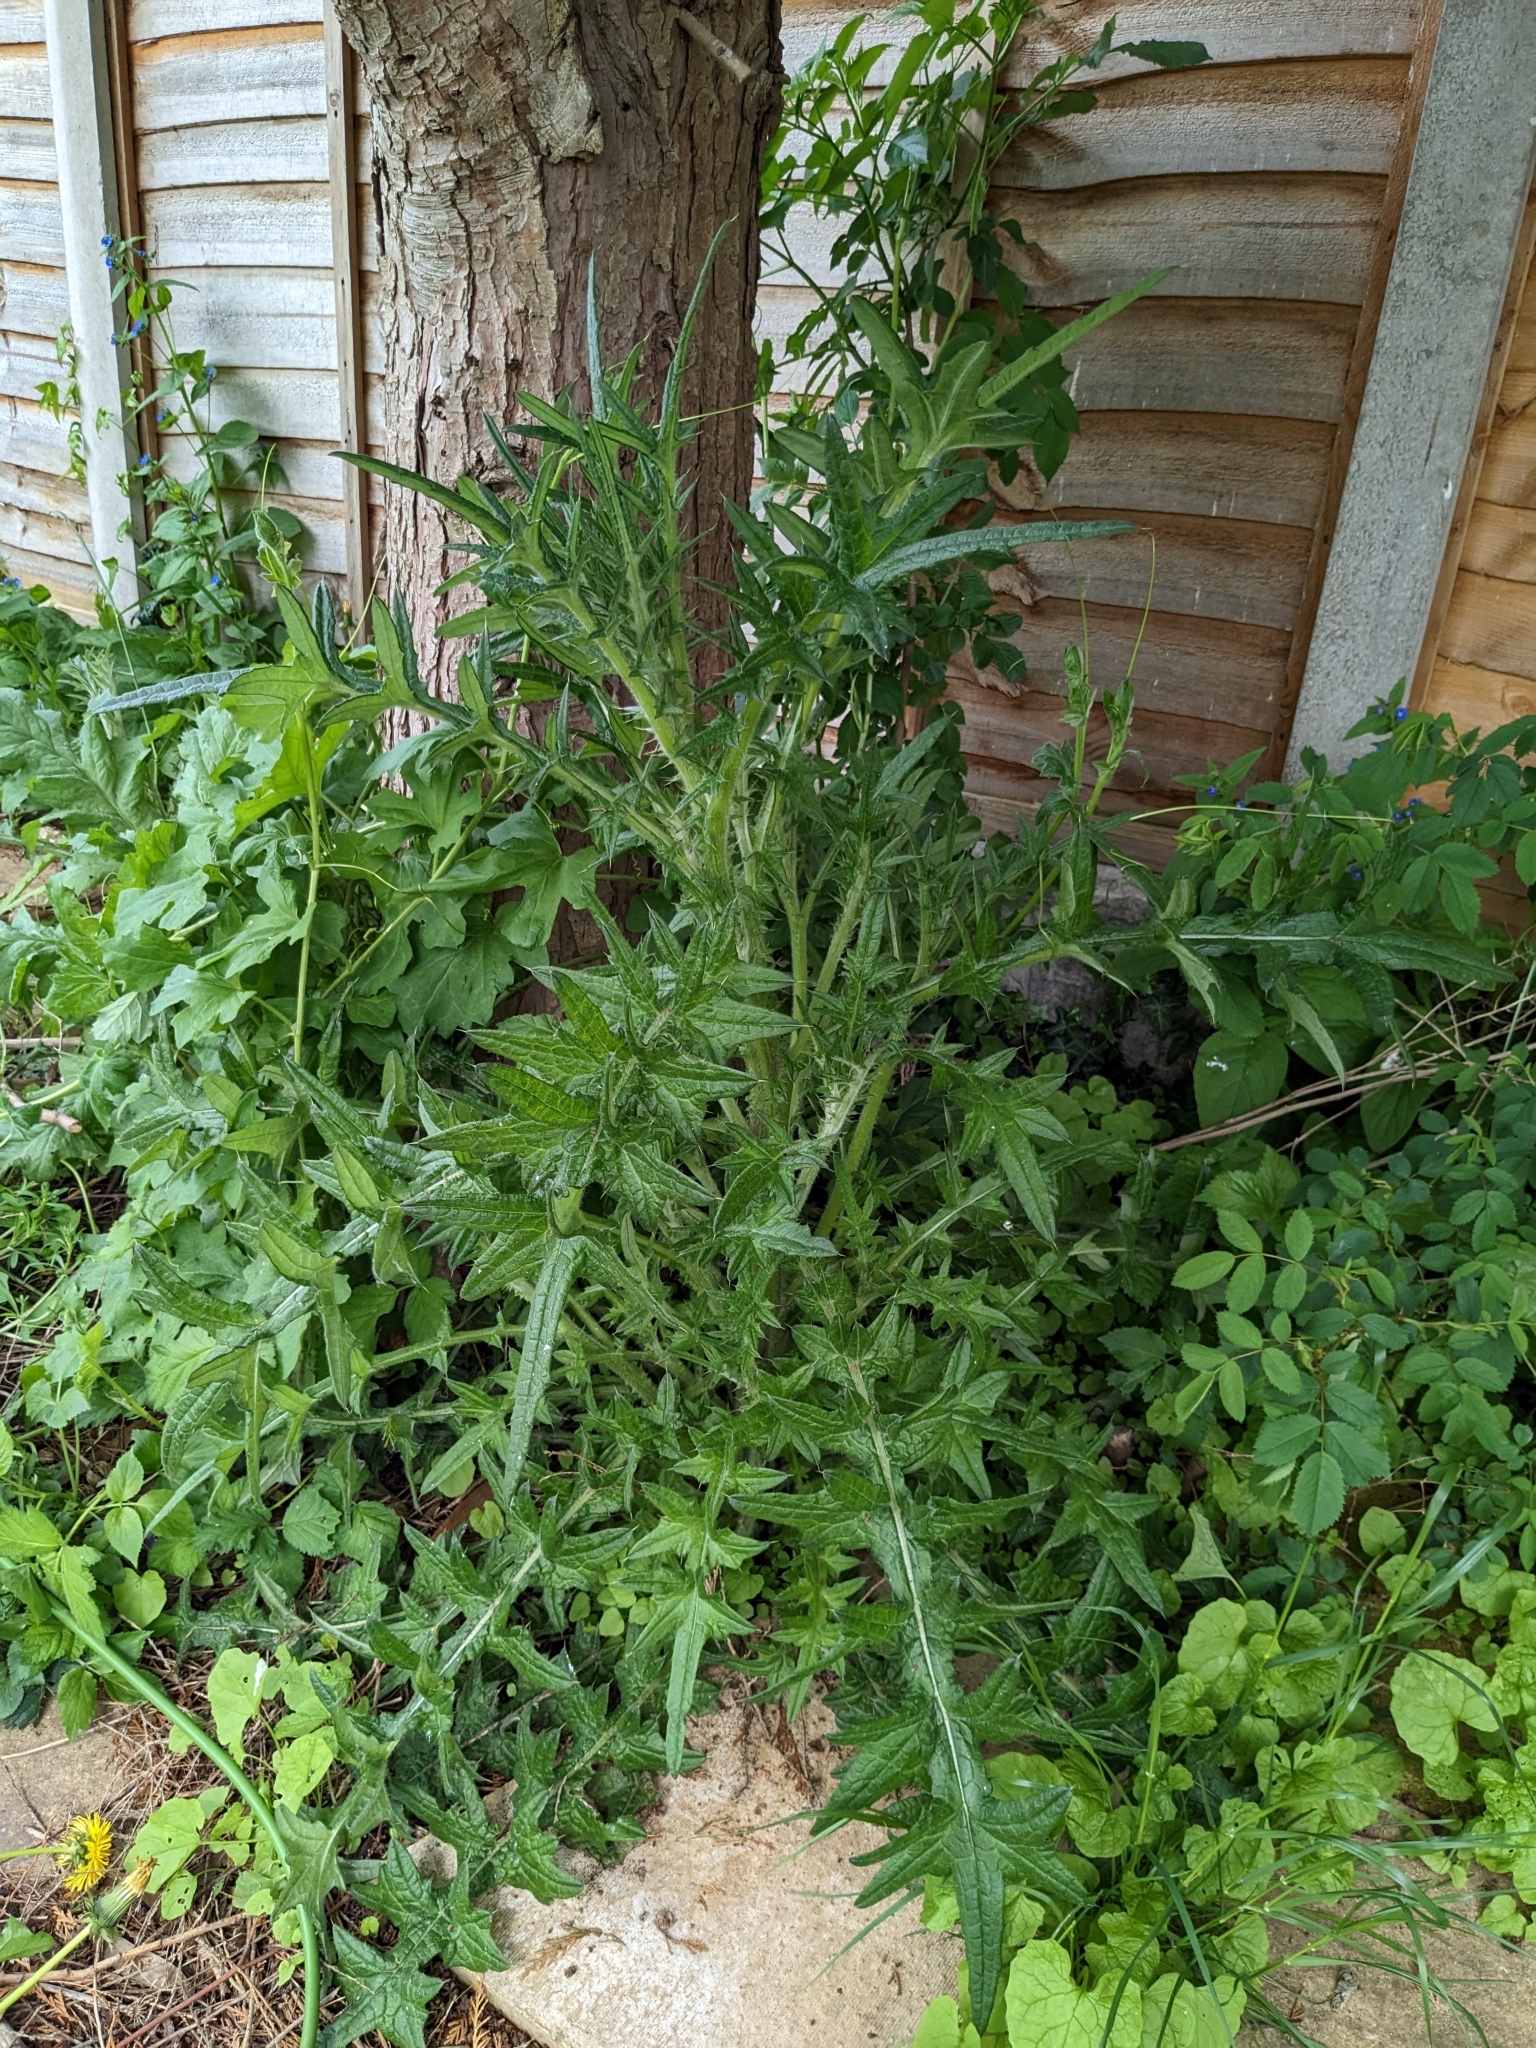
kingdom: Plantae
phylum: Tracheophyta
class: Magnoliopsida
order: Asterales
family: Asteraceae
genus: Cirsium
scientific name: Cirsium vulgare
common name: Bull thistle
